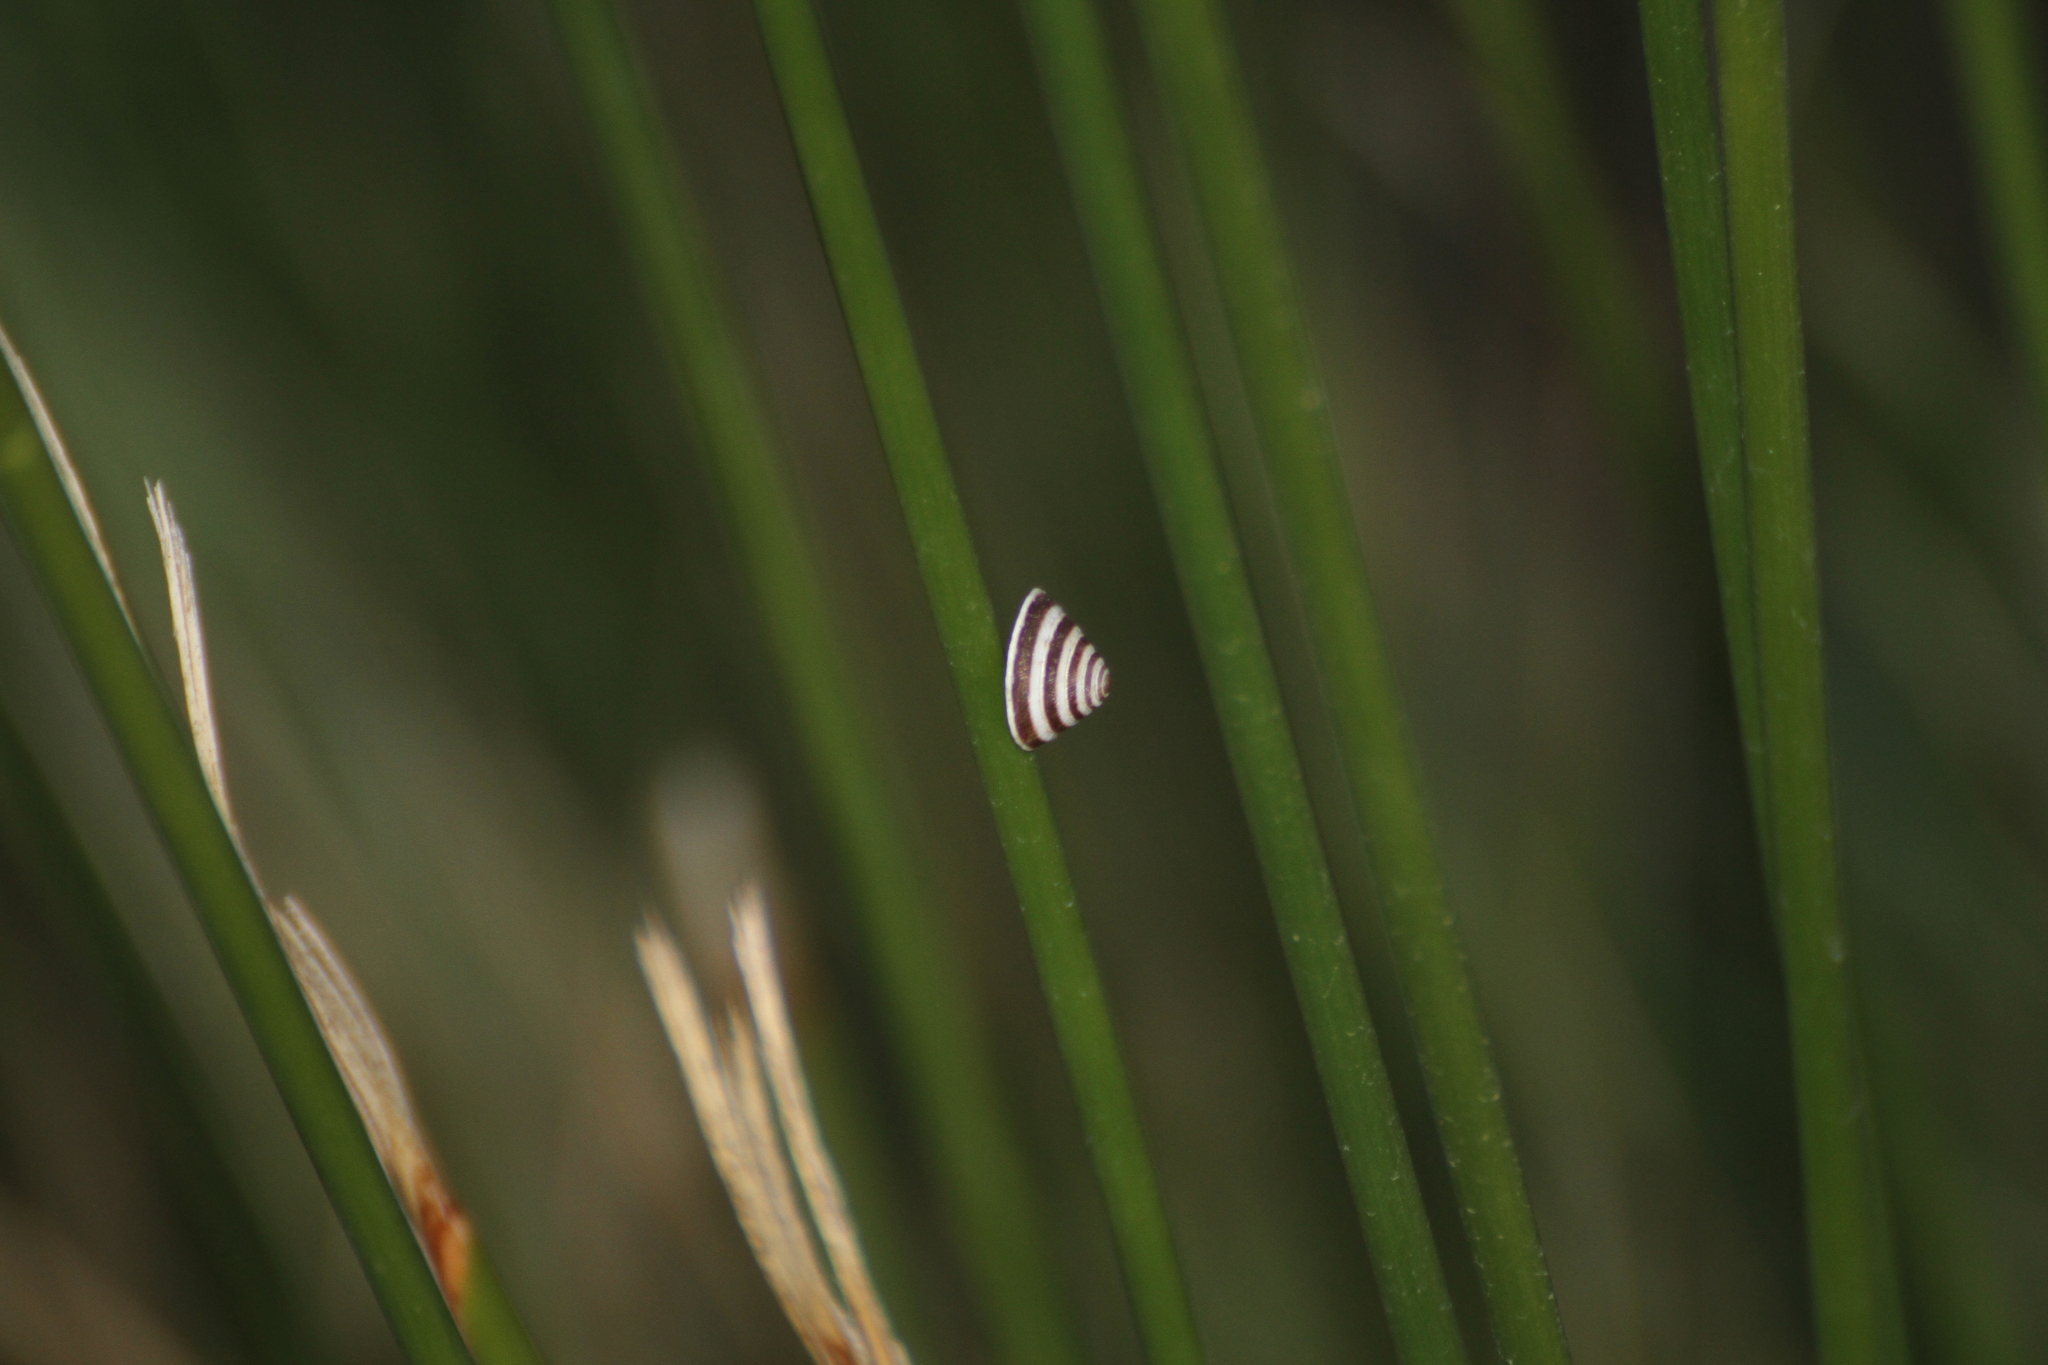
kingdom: Animalia
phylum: Mollusca
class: Gastropoda
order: Stylommatophora
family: Geomitridae
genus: Trochoidea
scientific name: Trochoidea elegans
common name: Elegant helicellid
